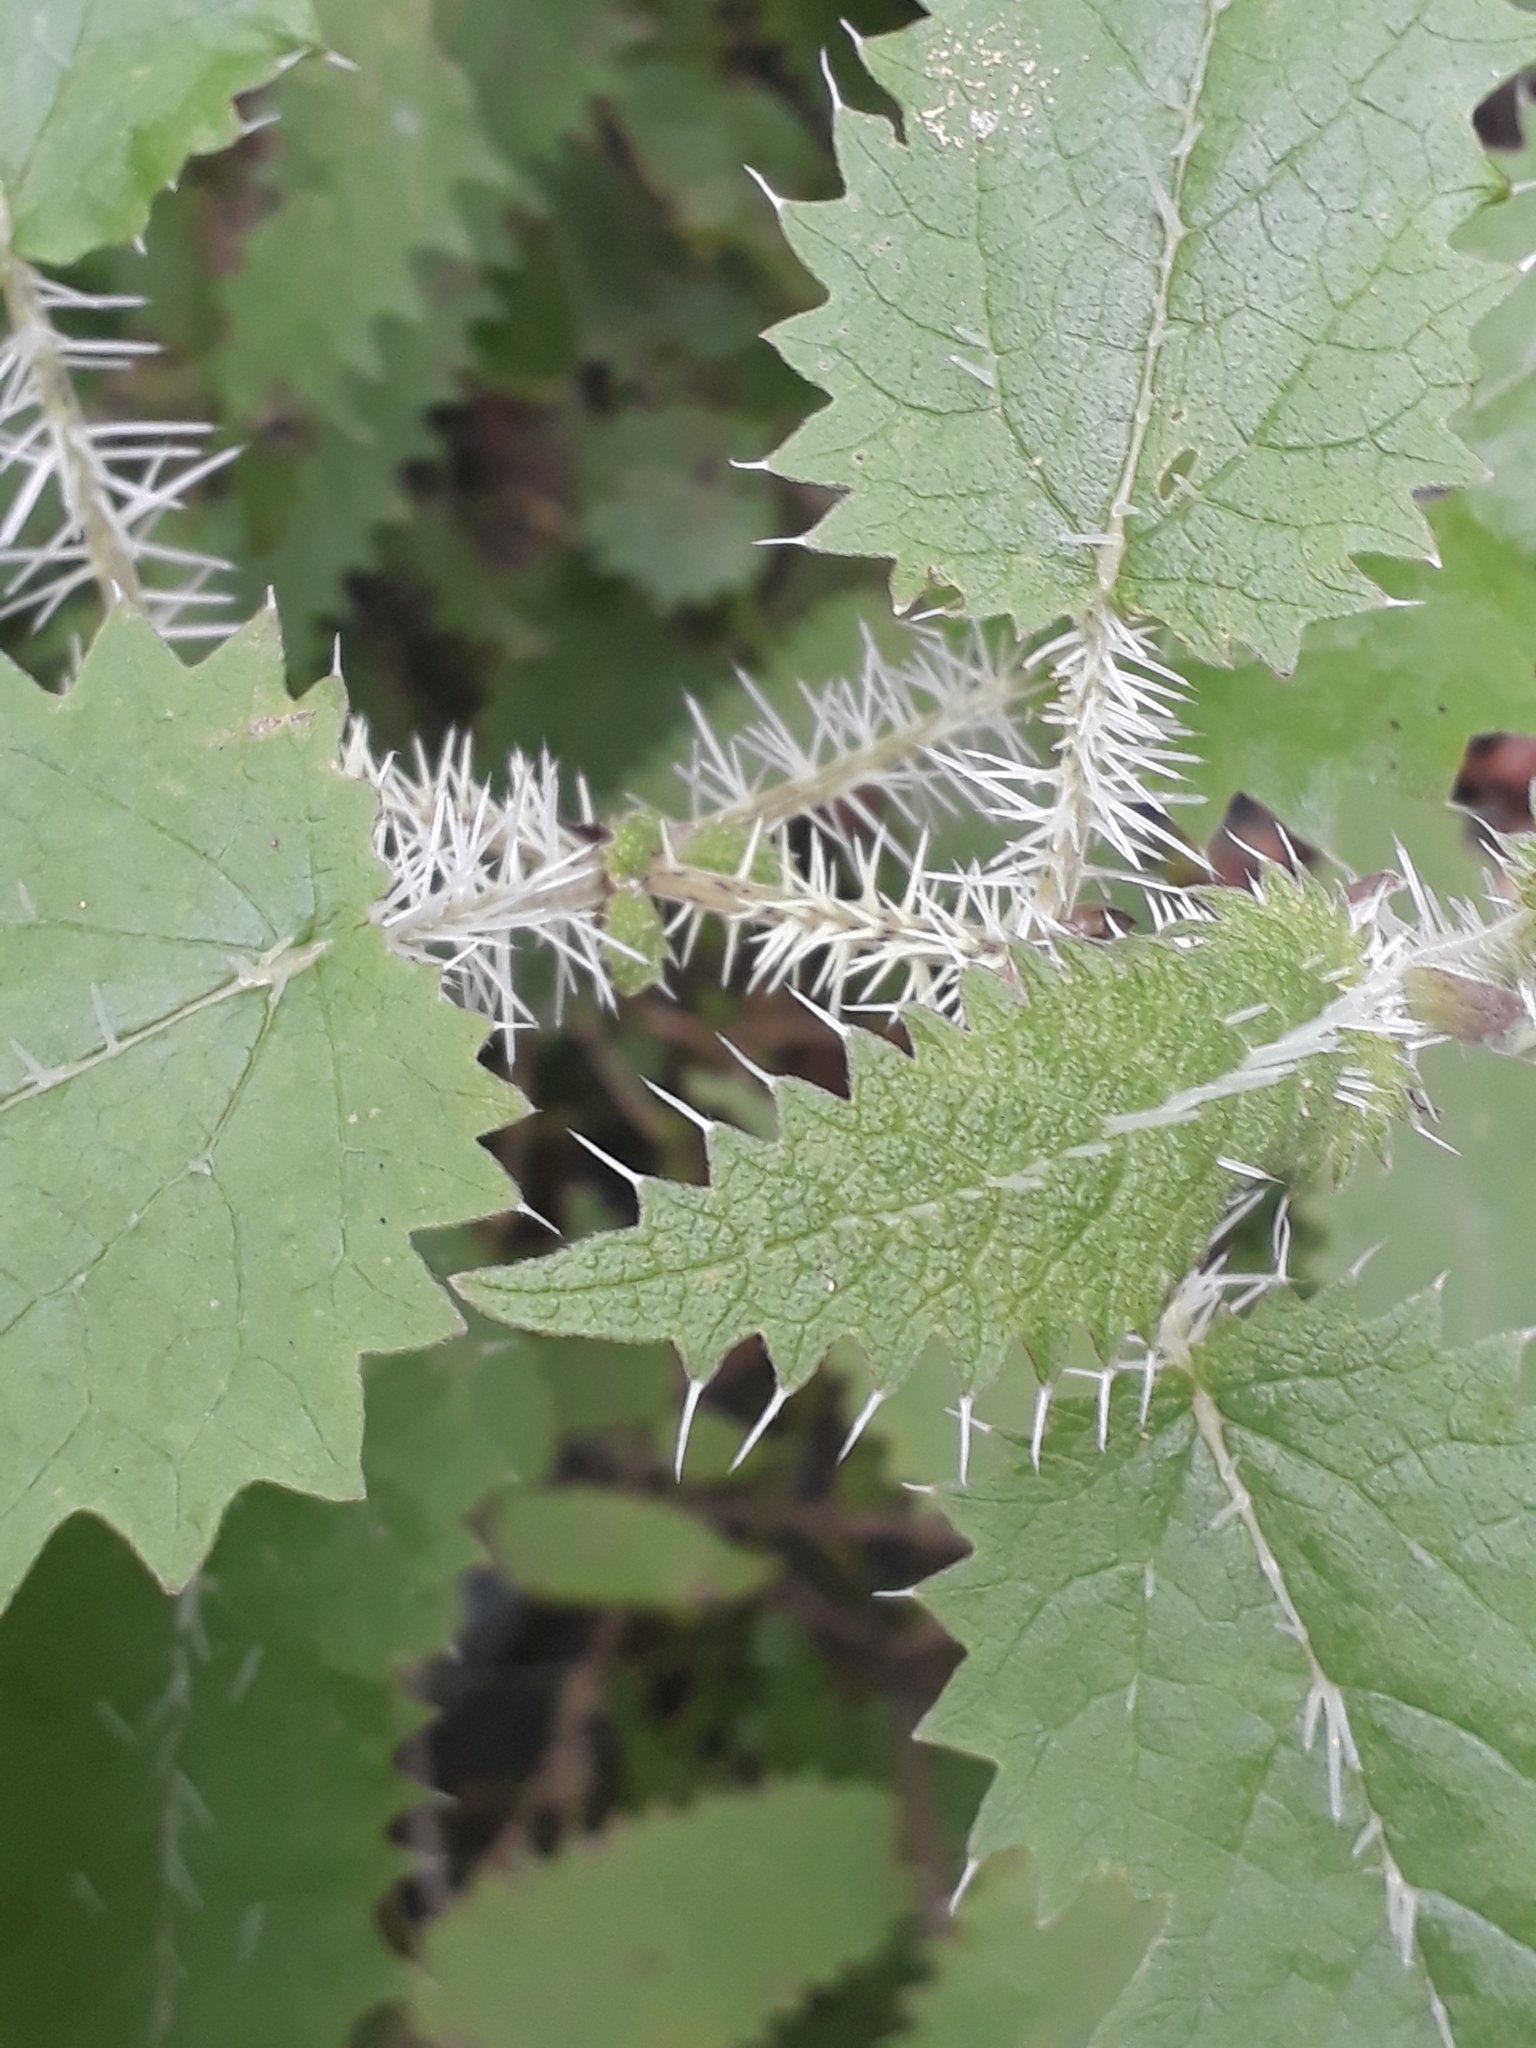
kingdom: Plantae
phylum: Tracheophyta
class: Magnoliopsida
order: Rosales
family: Urticaceae
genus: Urtica
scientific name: Urtica ferox
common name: Tree nettle
